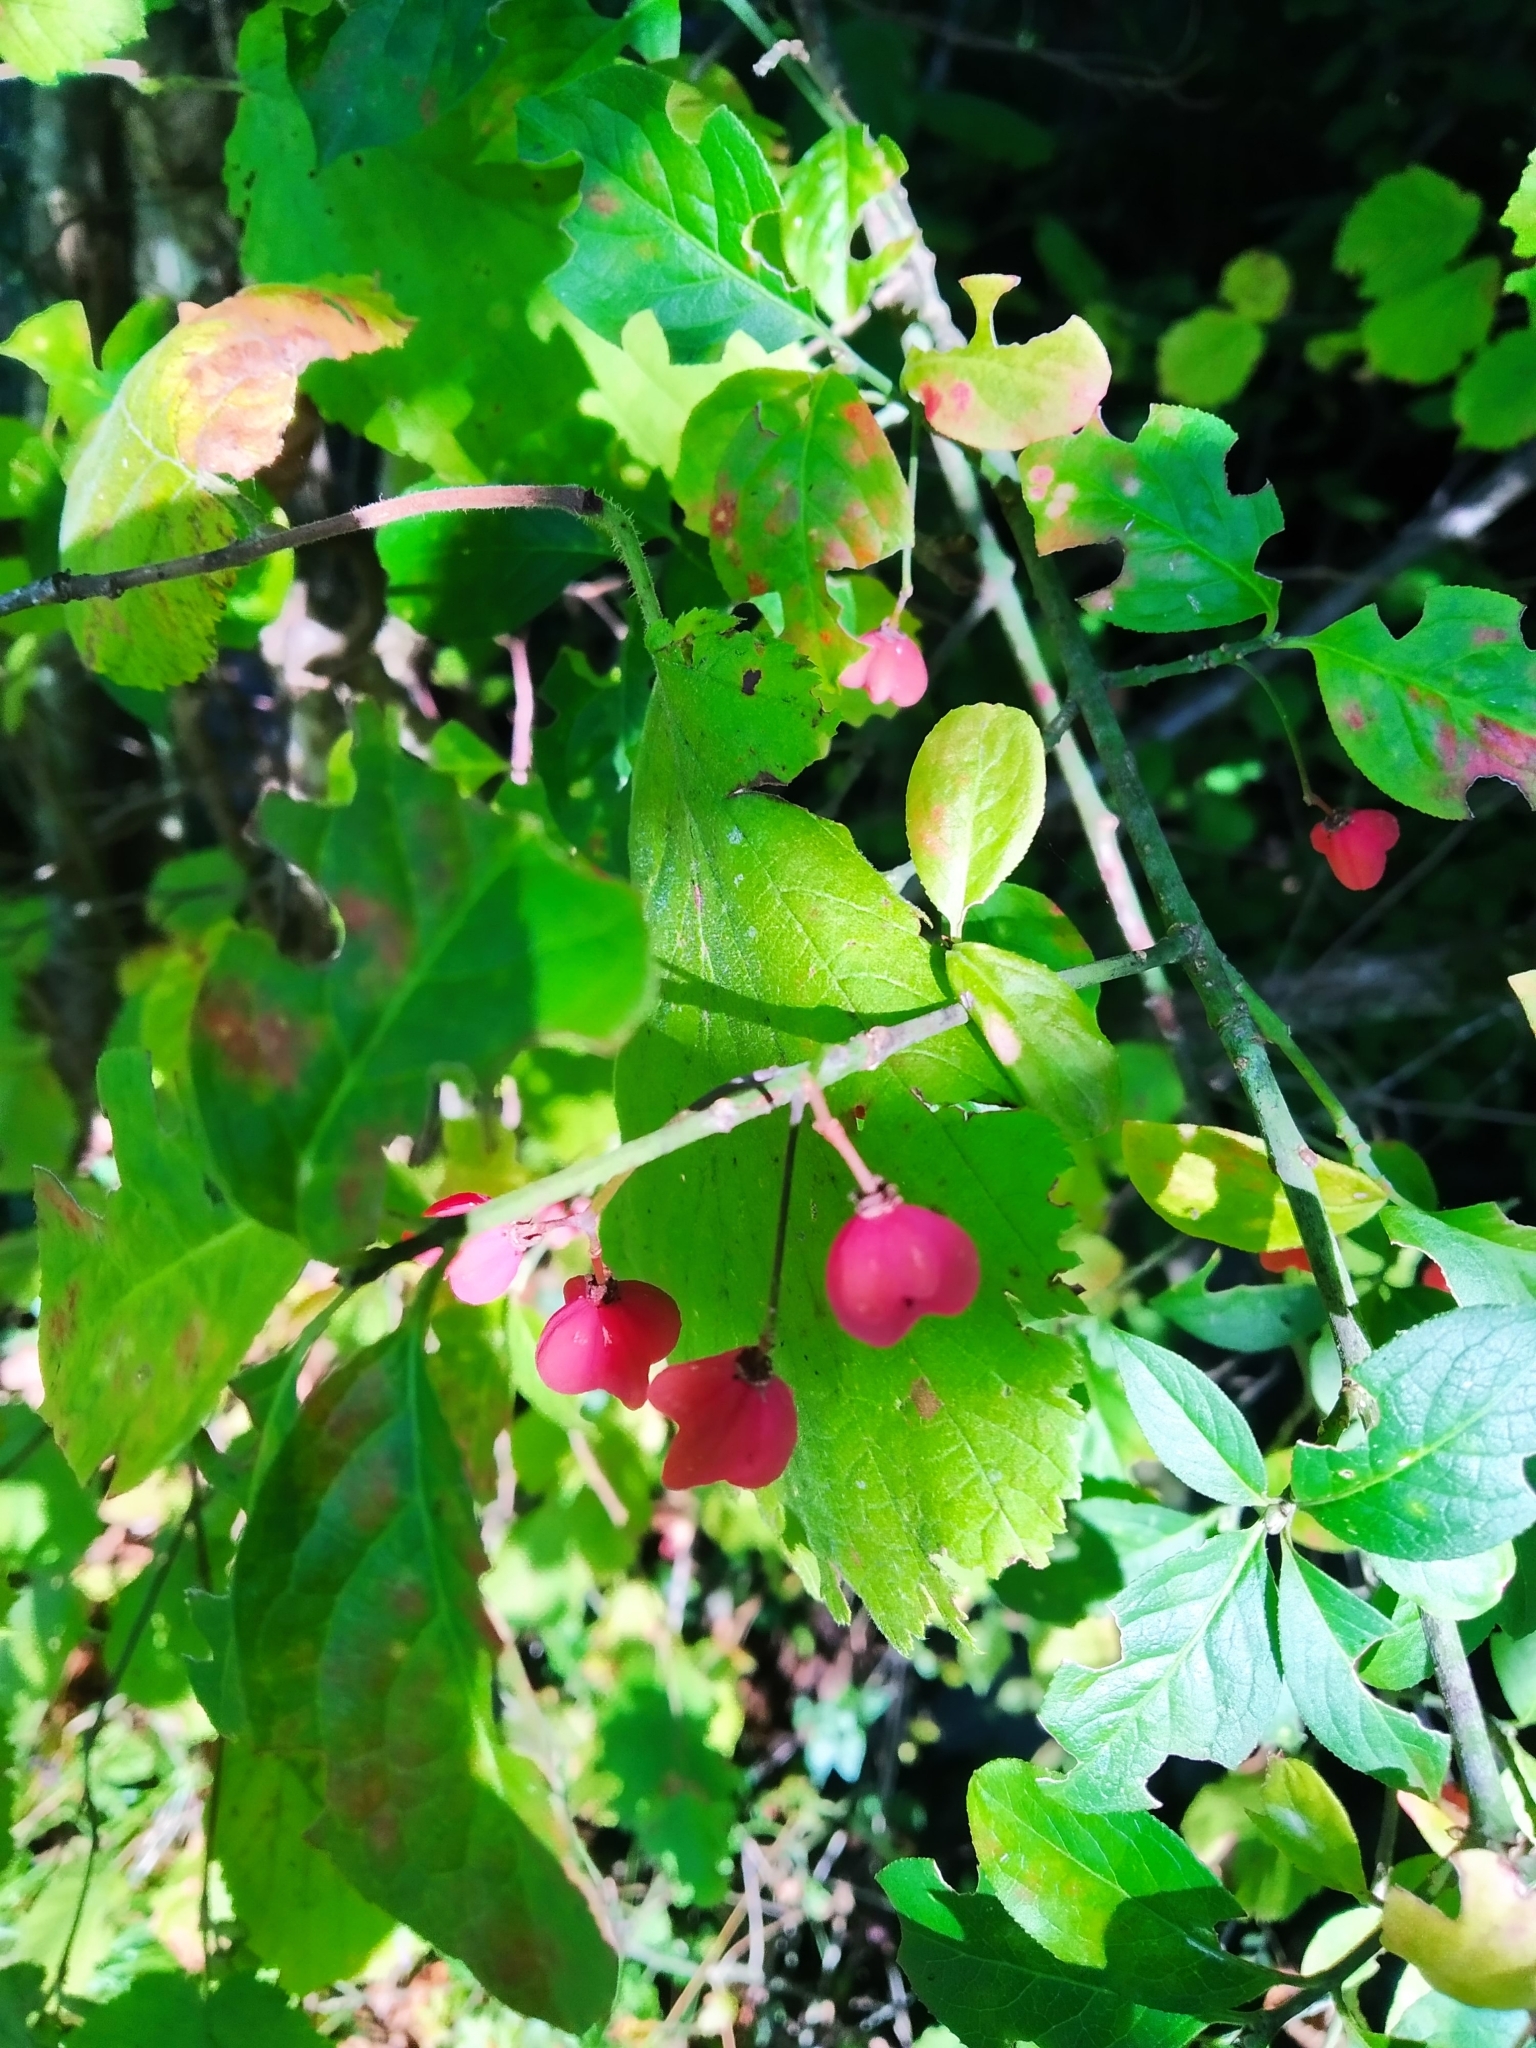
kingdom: Plantae
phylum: Tracheophyta
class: Magnoliopsida
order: Celastrales
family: Celastraceae
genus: Euonymus
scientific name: Euonymus europaeus
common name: Spindle
